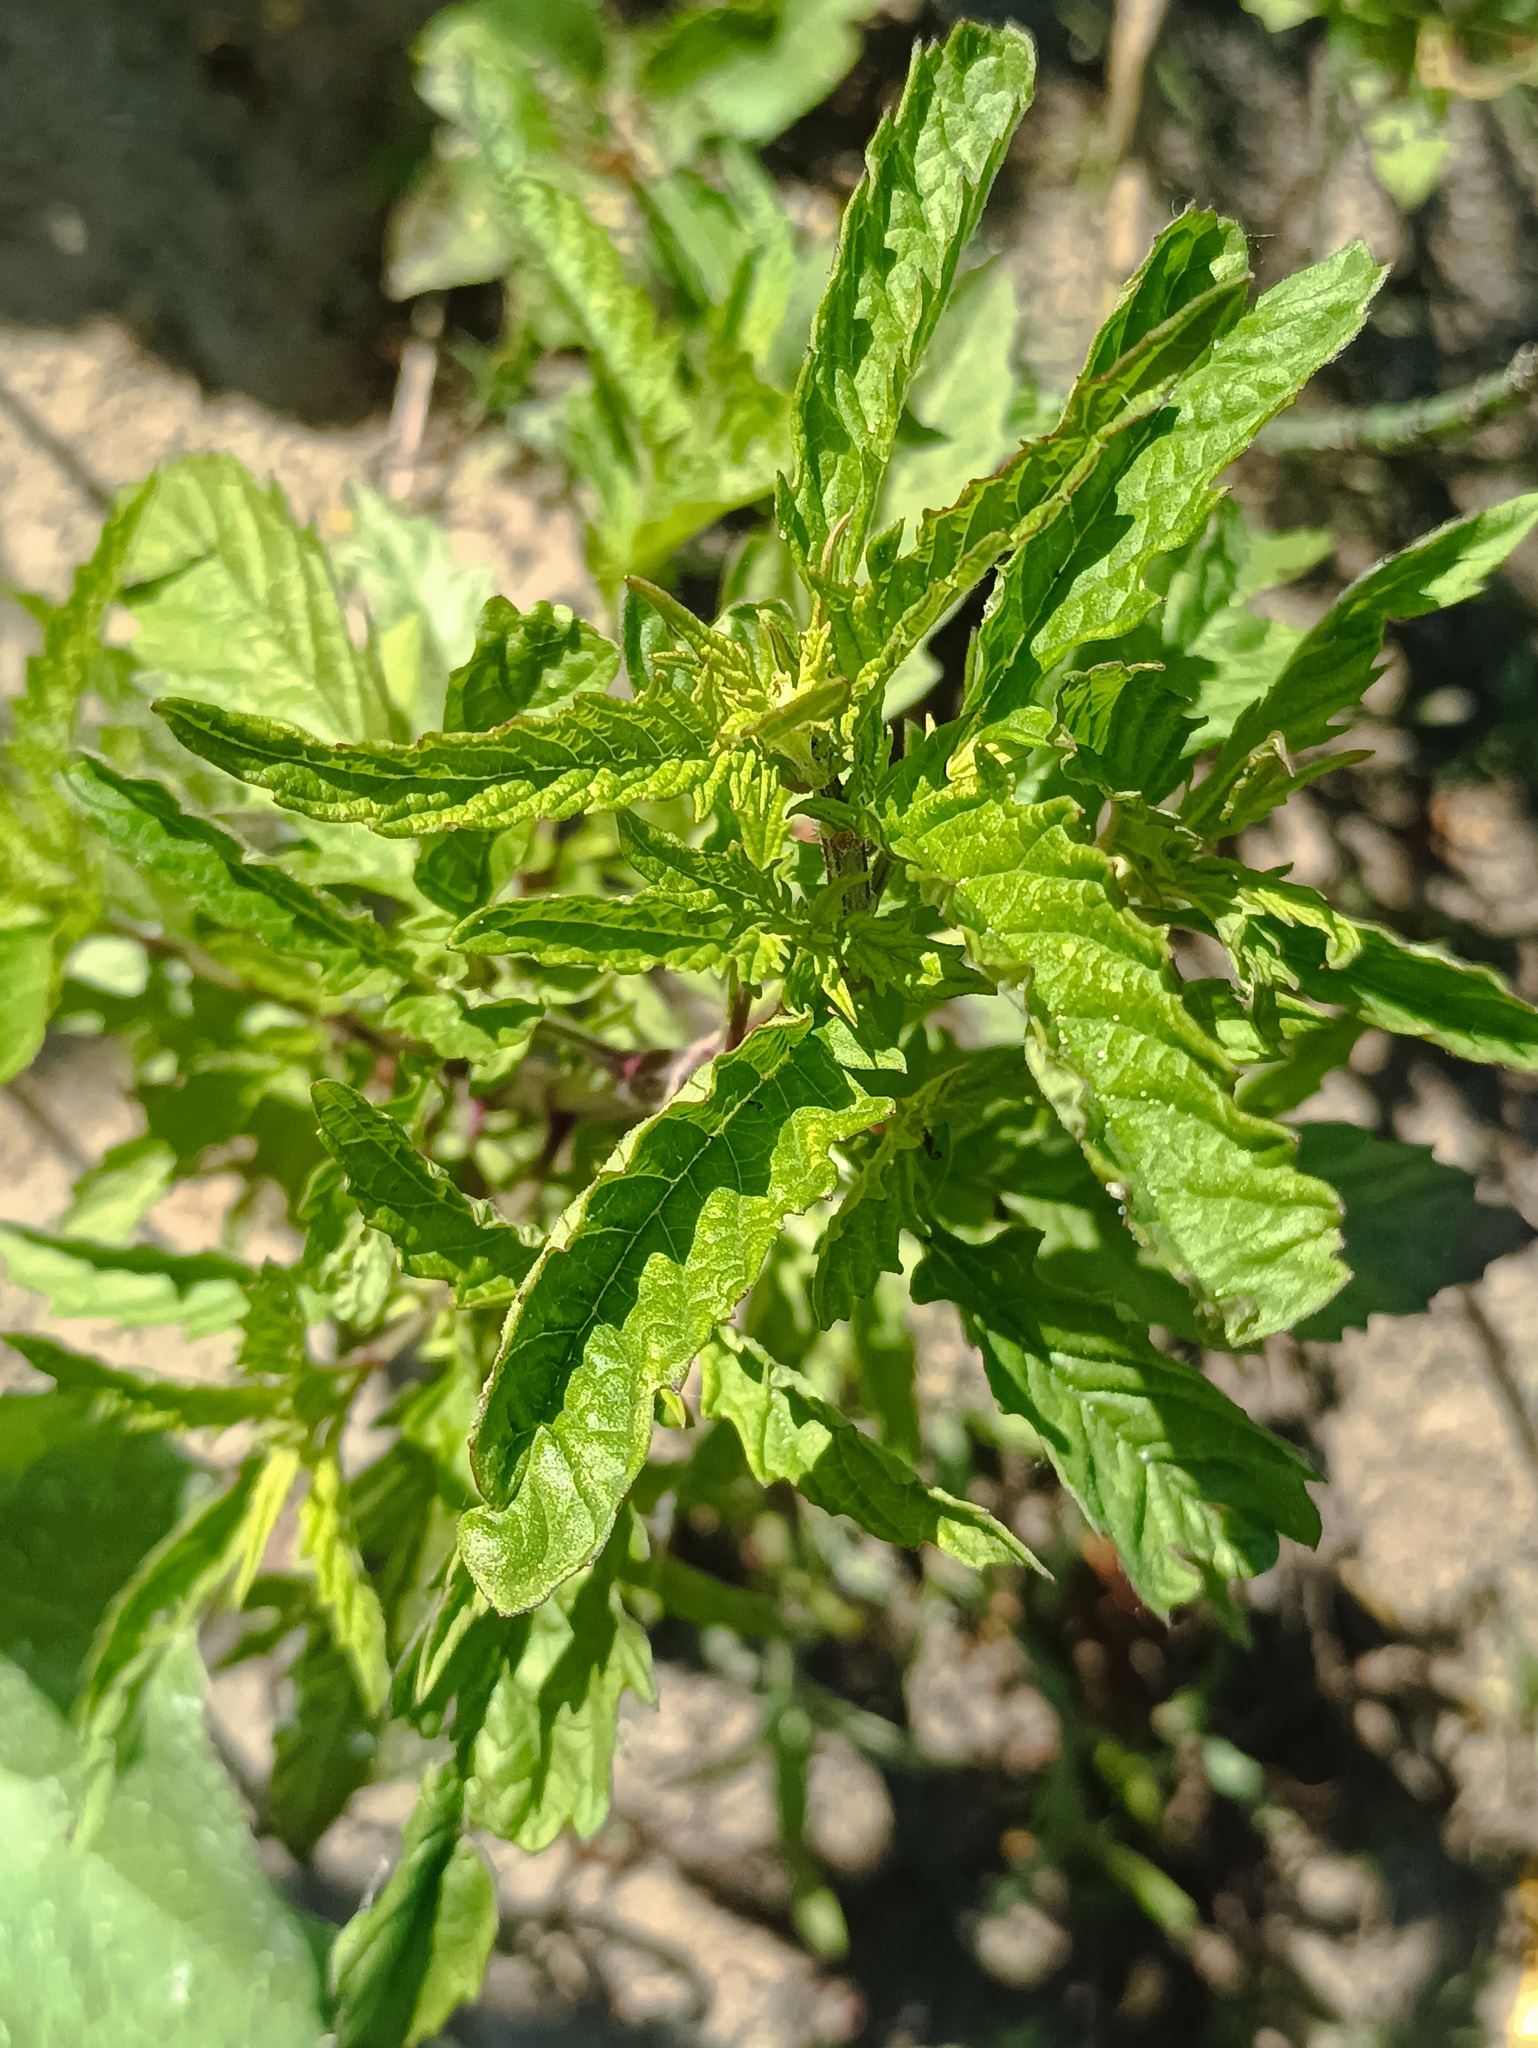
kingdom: Plantae
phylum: Tracheophyta
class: Magnoliopsida
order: Lamiales
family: Lamiaceae
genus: Lycopus
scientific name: Lycopus europaeus
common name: European bugleweed
